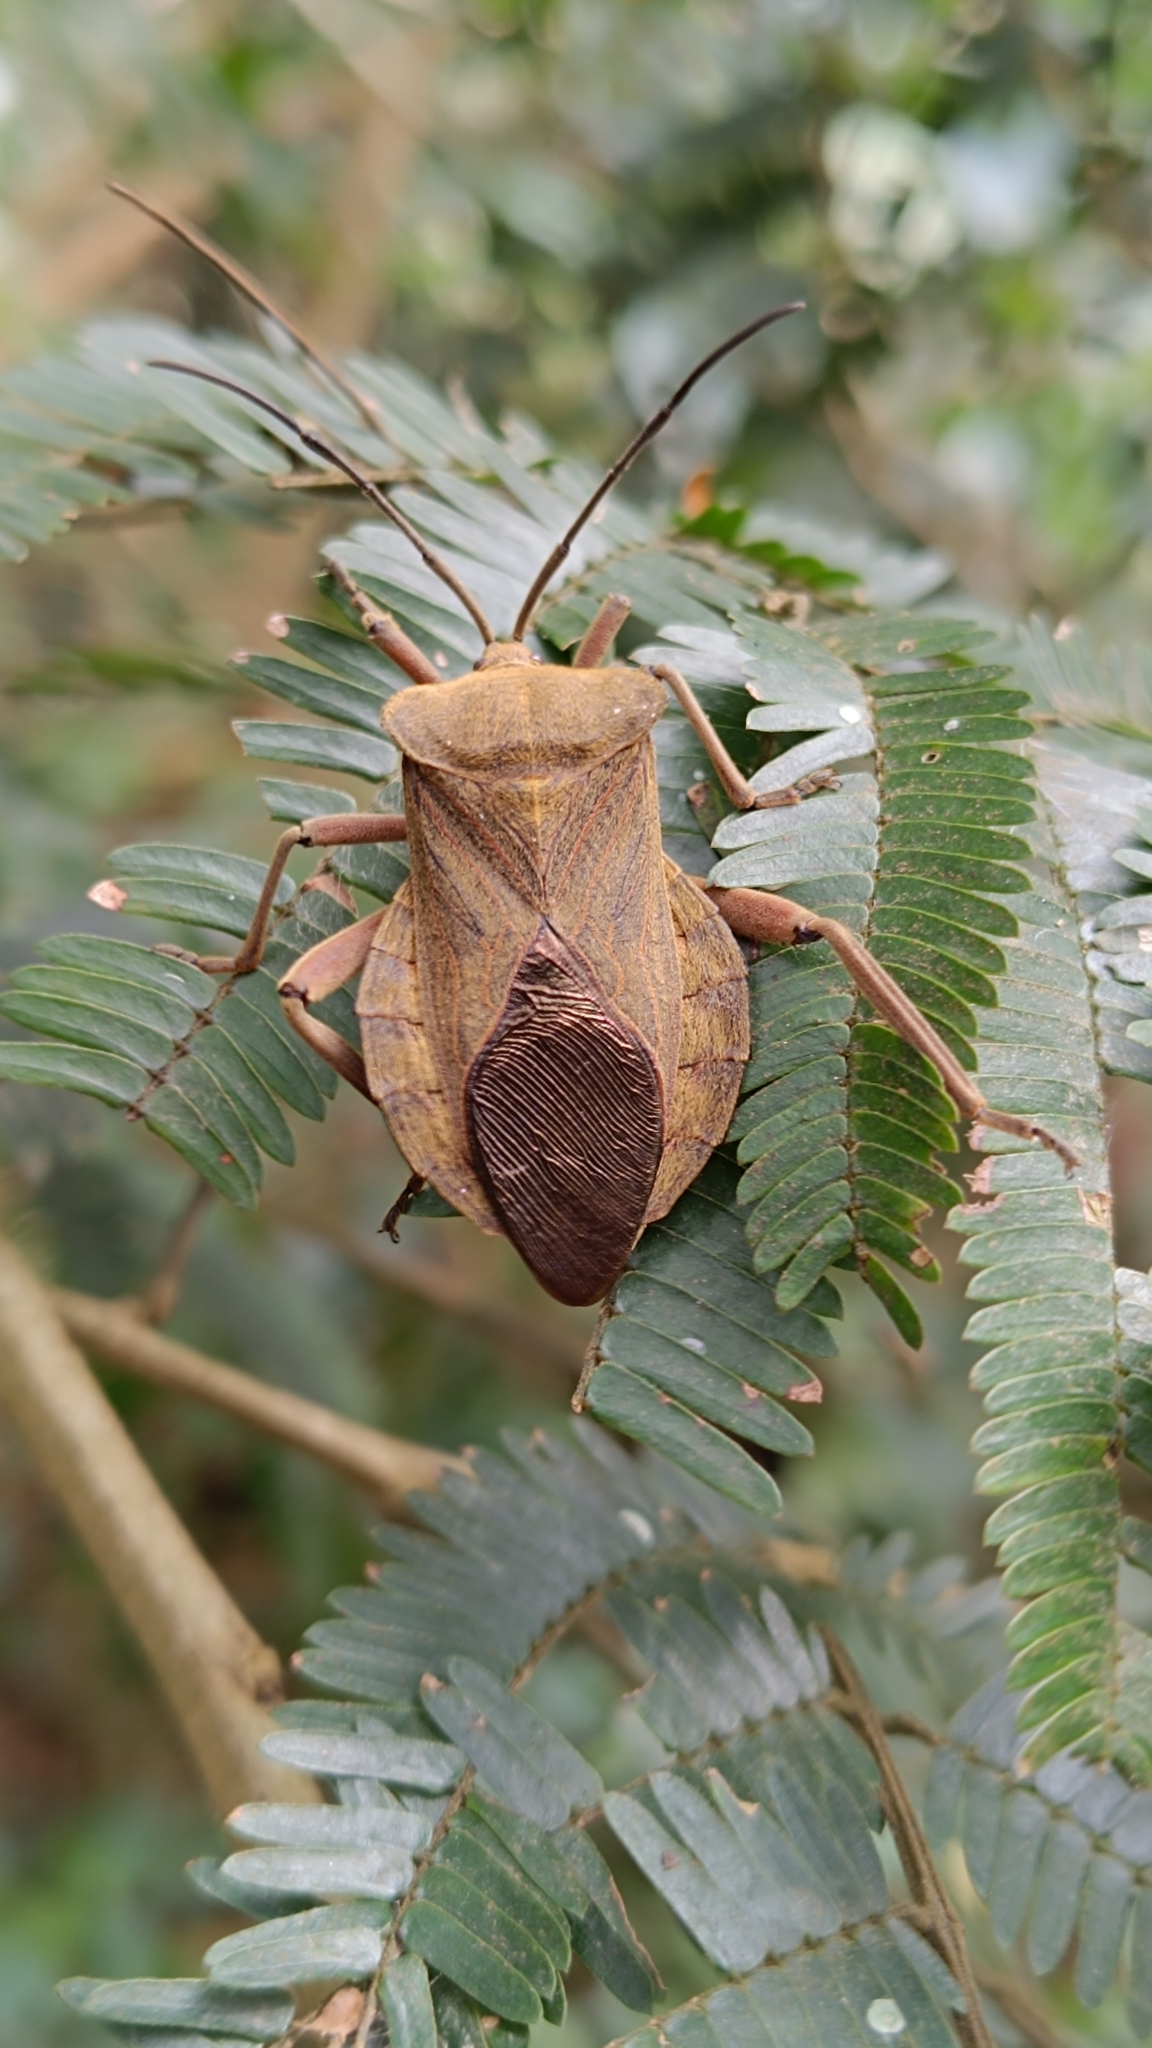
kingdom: Animalia
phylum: Arthropoda
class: Insecta
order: Hemiptera
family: Coreidae
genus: Pachylis
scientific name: Pachylis bipunctatus
